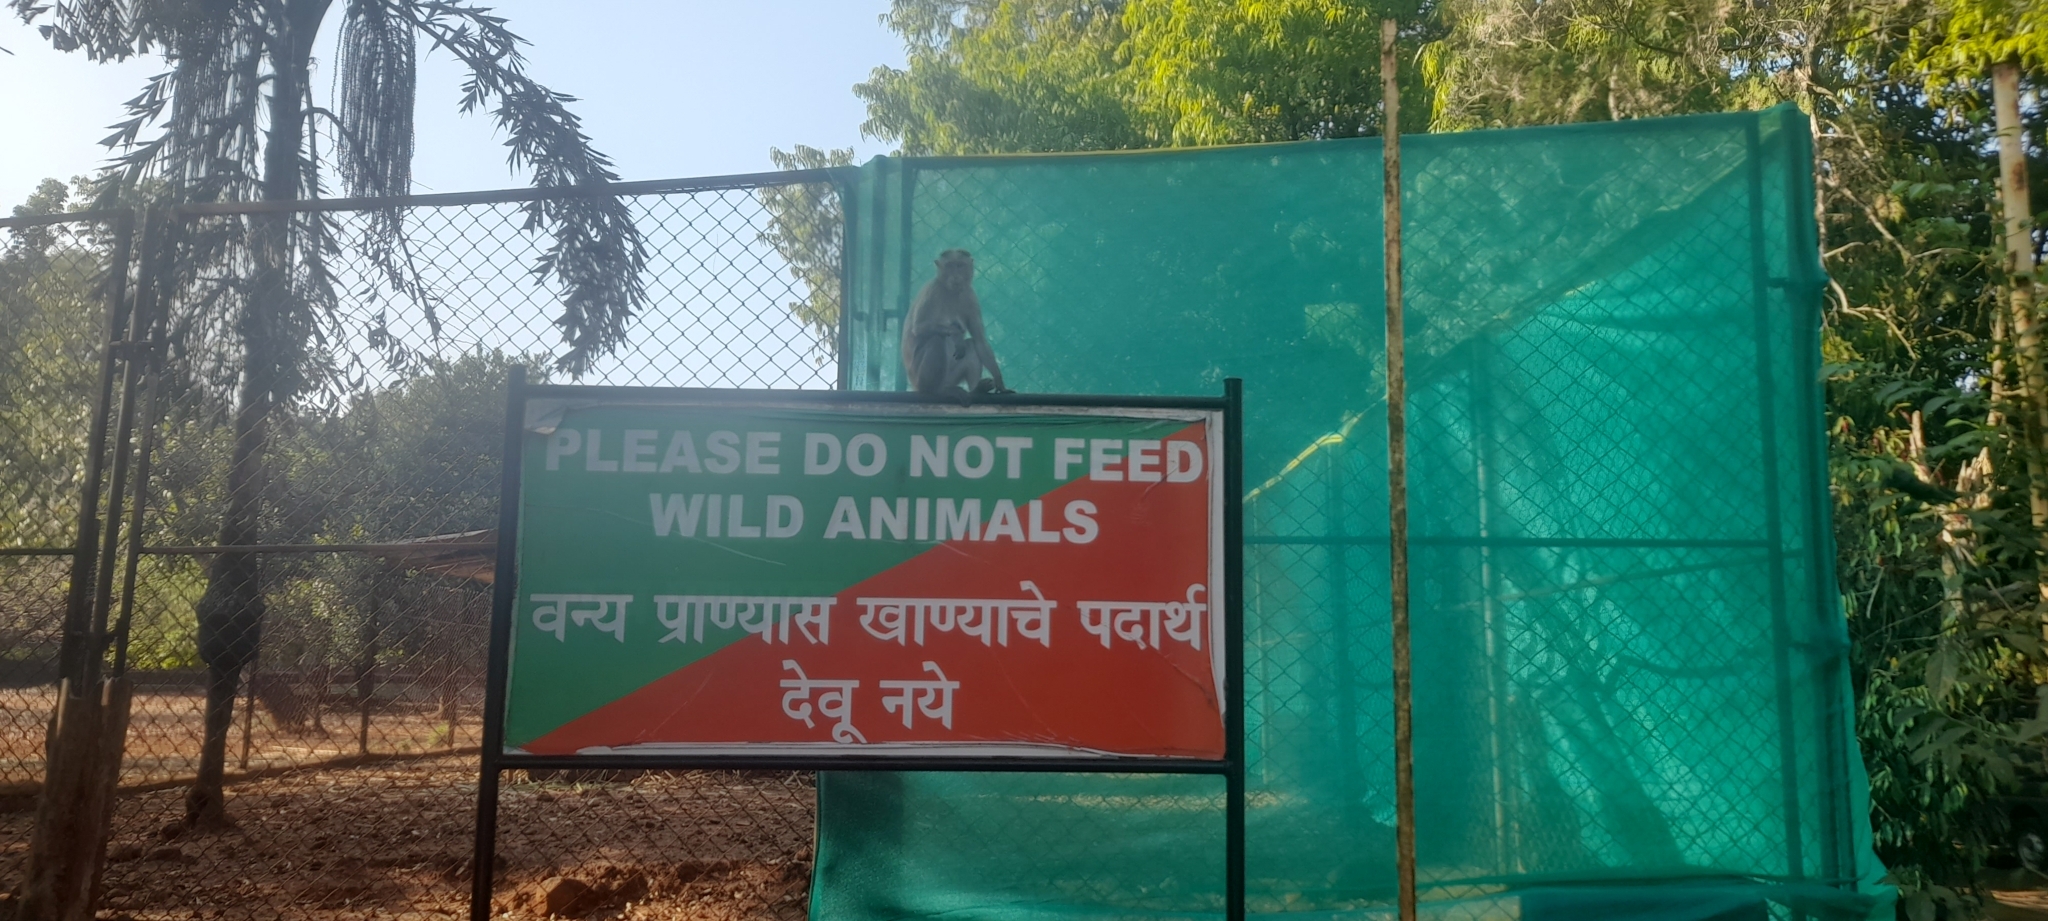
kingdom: Animalia
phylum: Chordata
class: Mammalia
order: Primates
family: Cercopithecidae
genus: Macaca
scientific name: Macaca radiata
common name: Bonnet macaque
